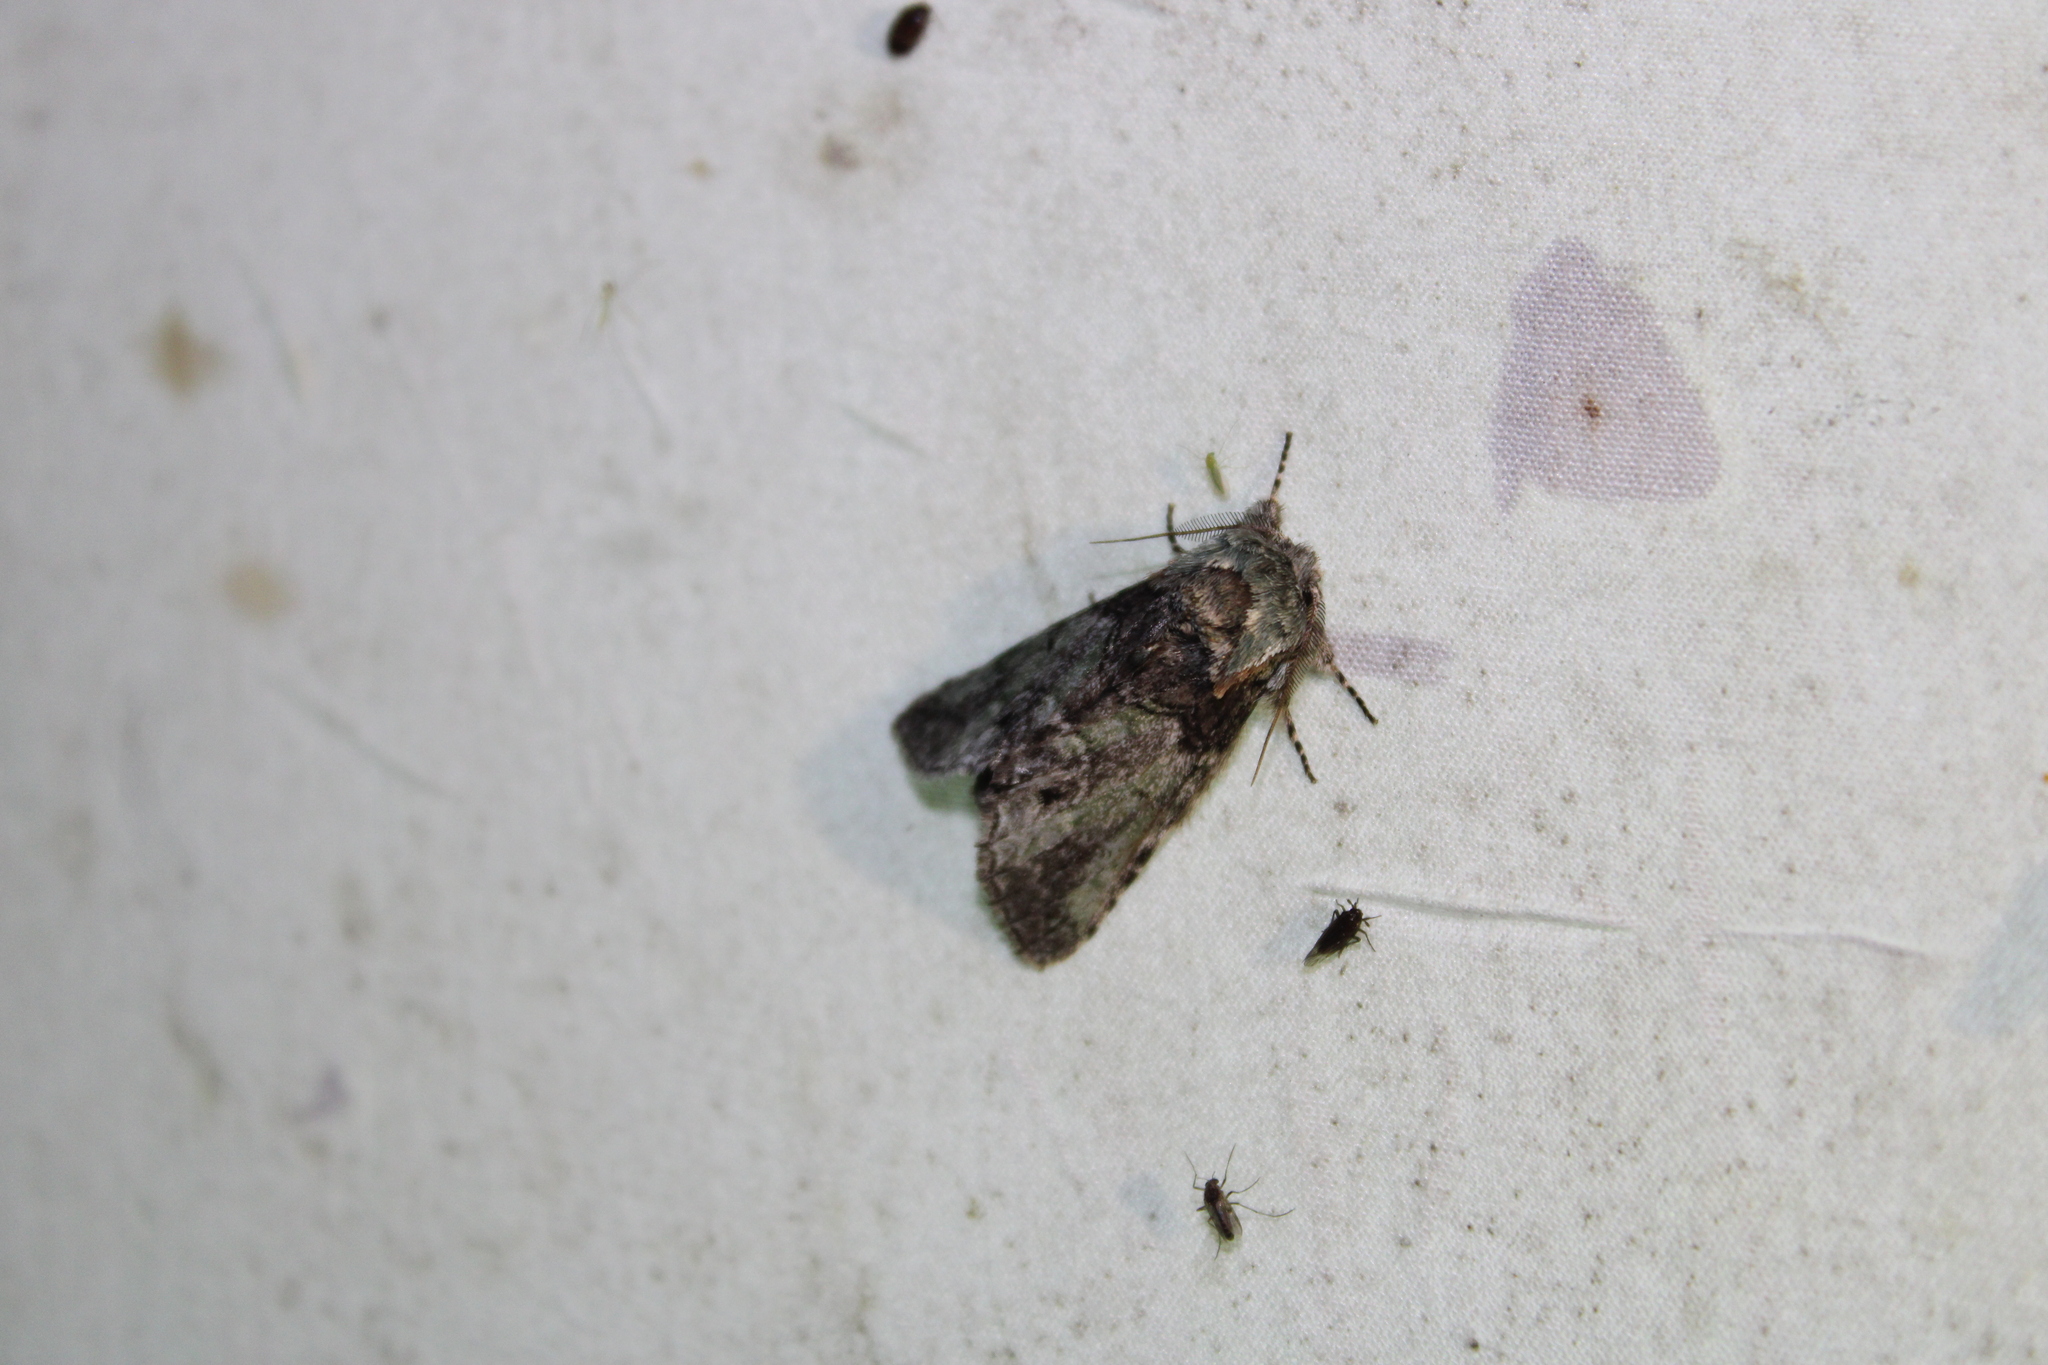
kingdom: Animalia
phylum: Arthropoda
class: Insecta
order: Lepidoptera
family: Notodontidae
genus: Macrurocampa
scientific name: Macrurocampa marthesia
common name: Mottled prominent
